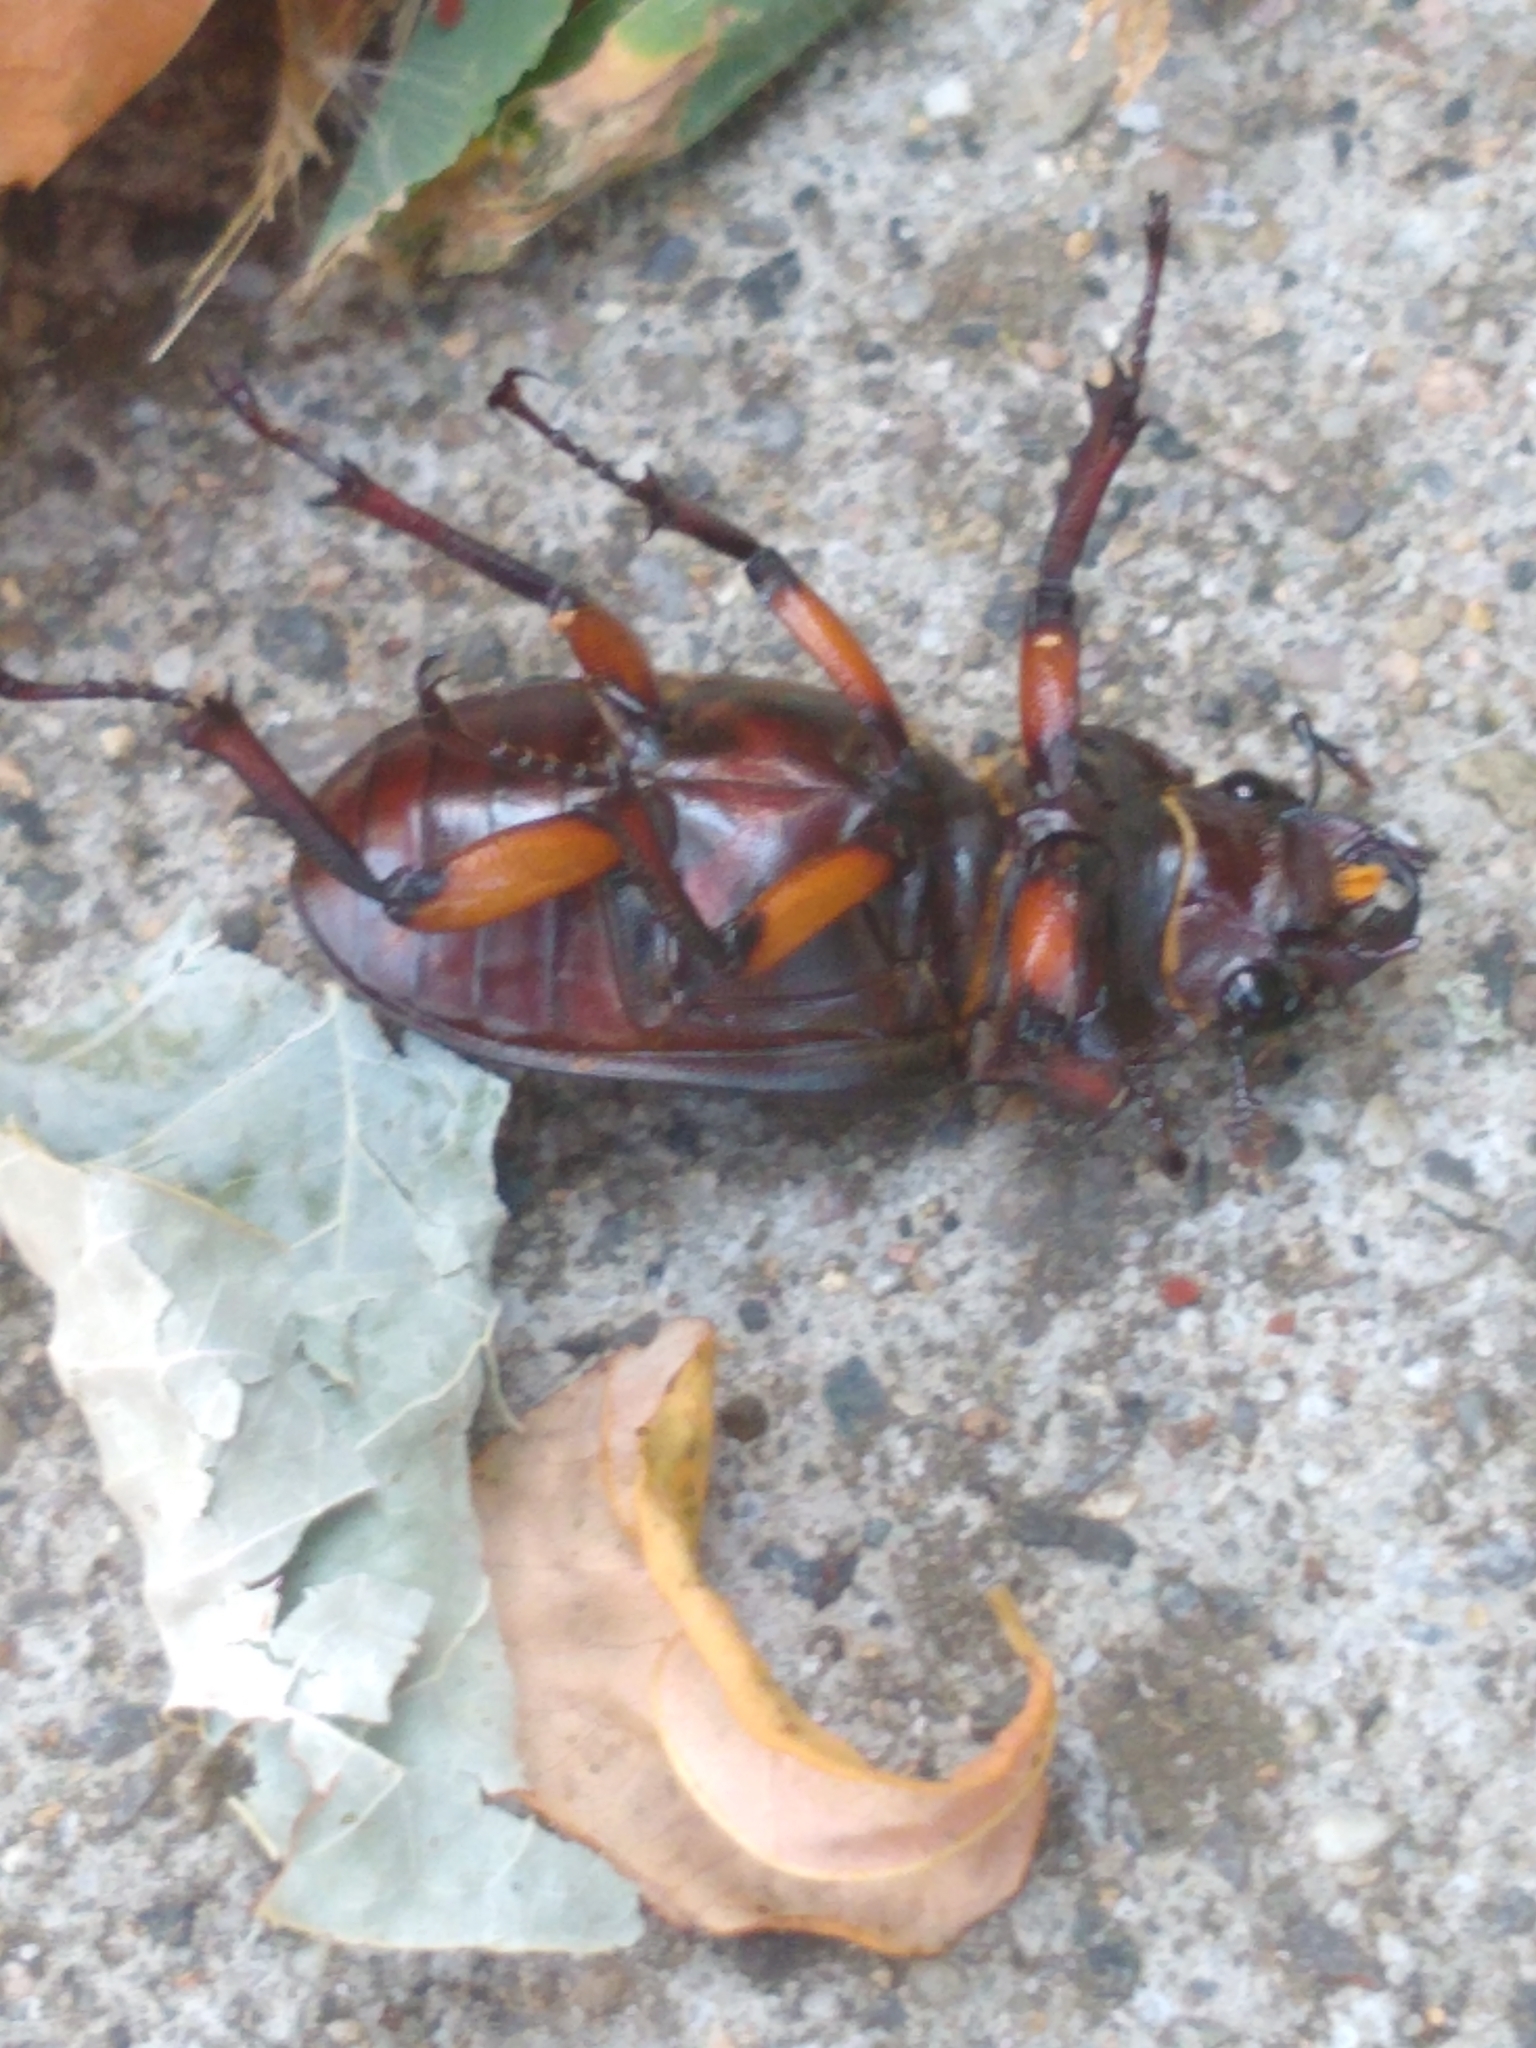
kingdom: Animalia
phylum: Arthropoda
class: Insecta
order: Coleoptera
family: Lucanidae
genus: Lucanus
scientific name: Lucanus capreolus
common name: Stag beetle
